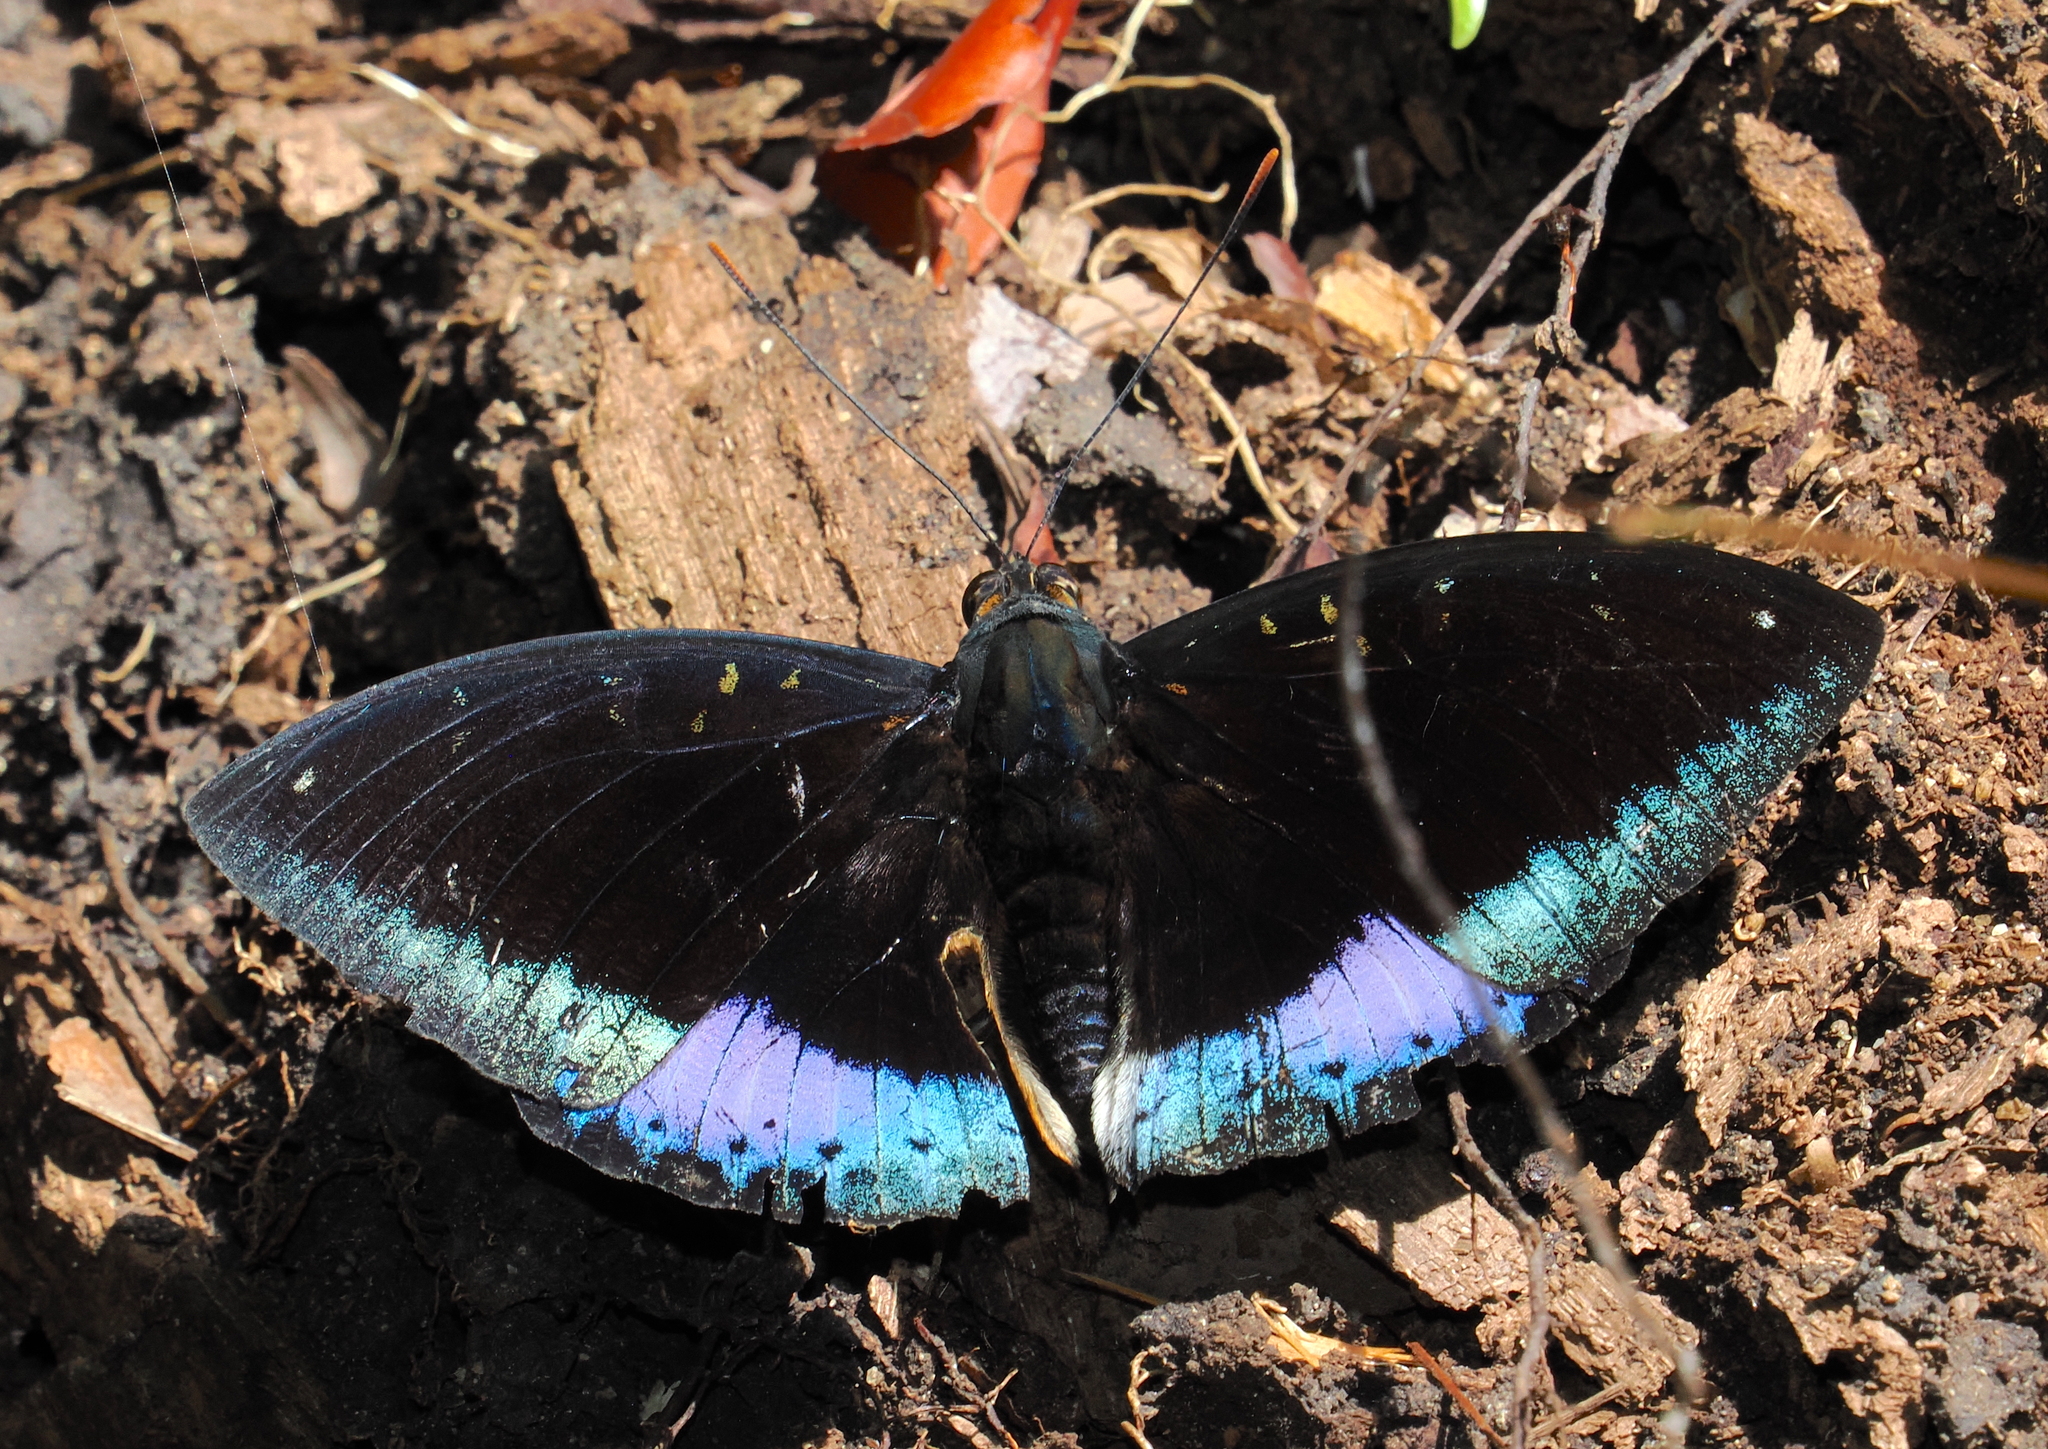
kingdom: Animalia
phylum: Arthropoda
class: Insecta
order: Lepidoptera
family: Nymphalidae
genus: Lexias
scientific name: Lexias pardalis
